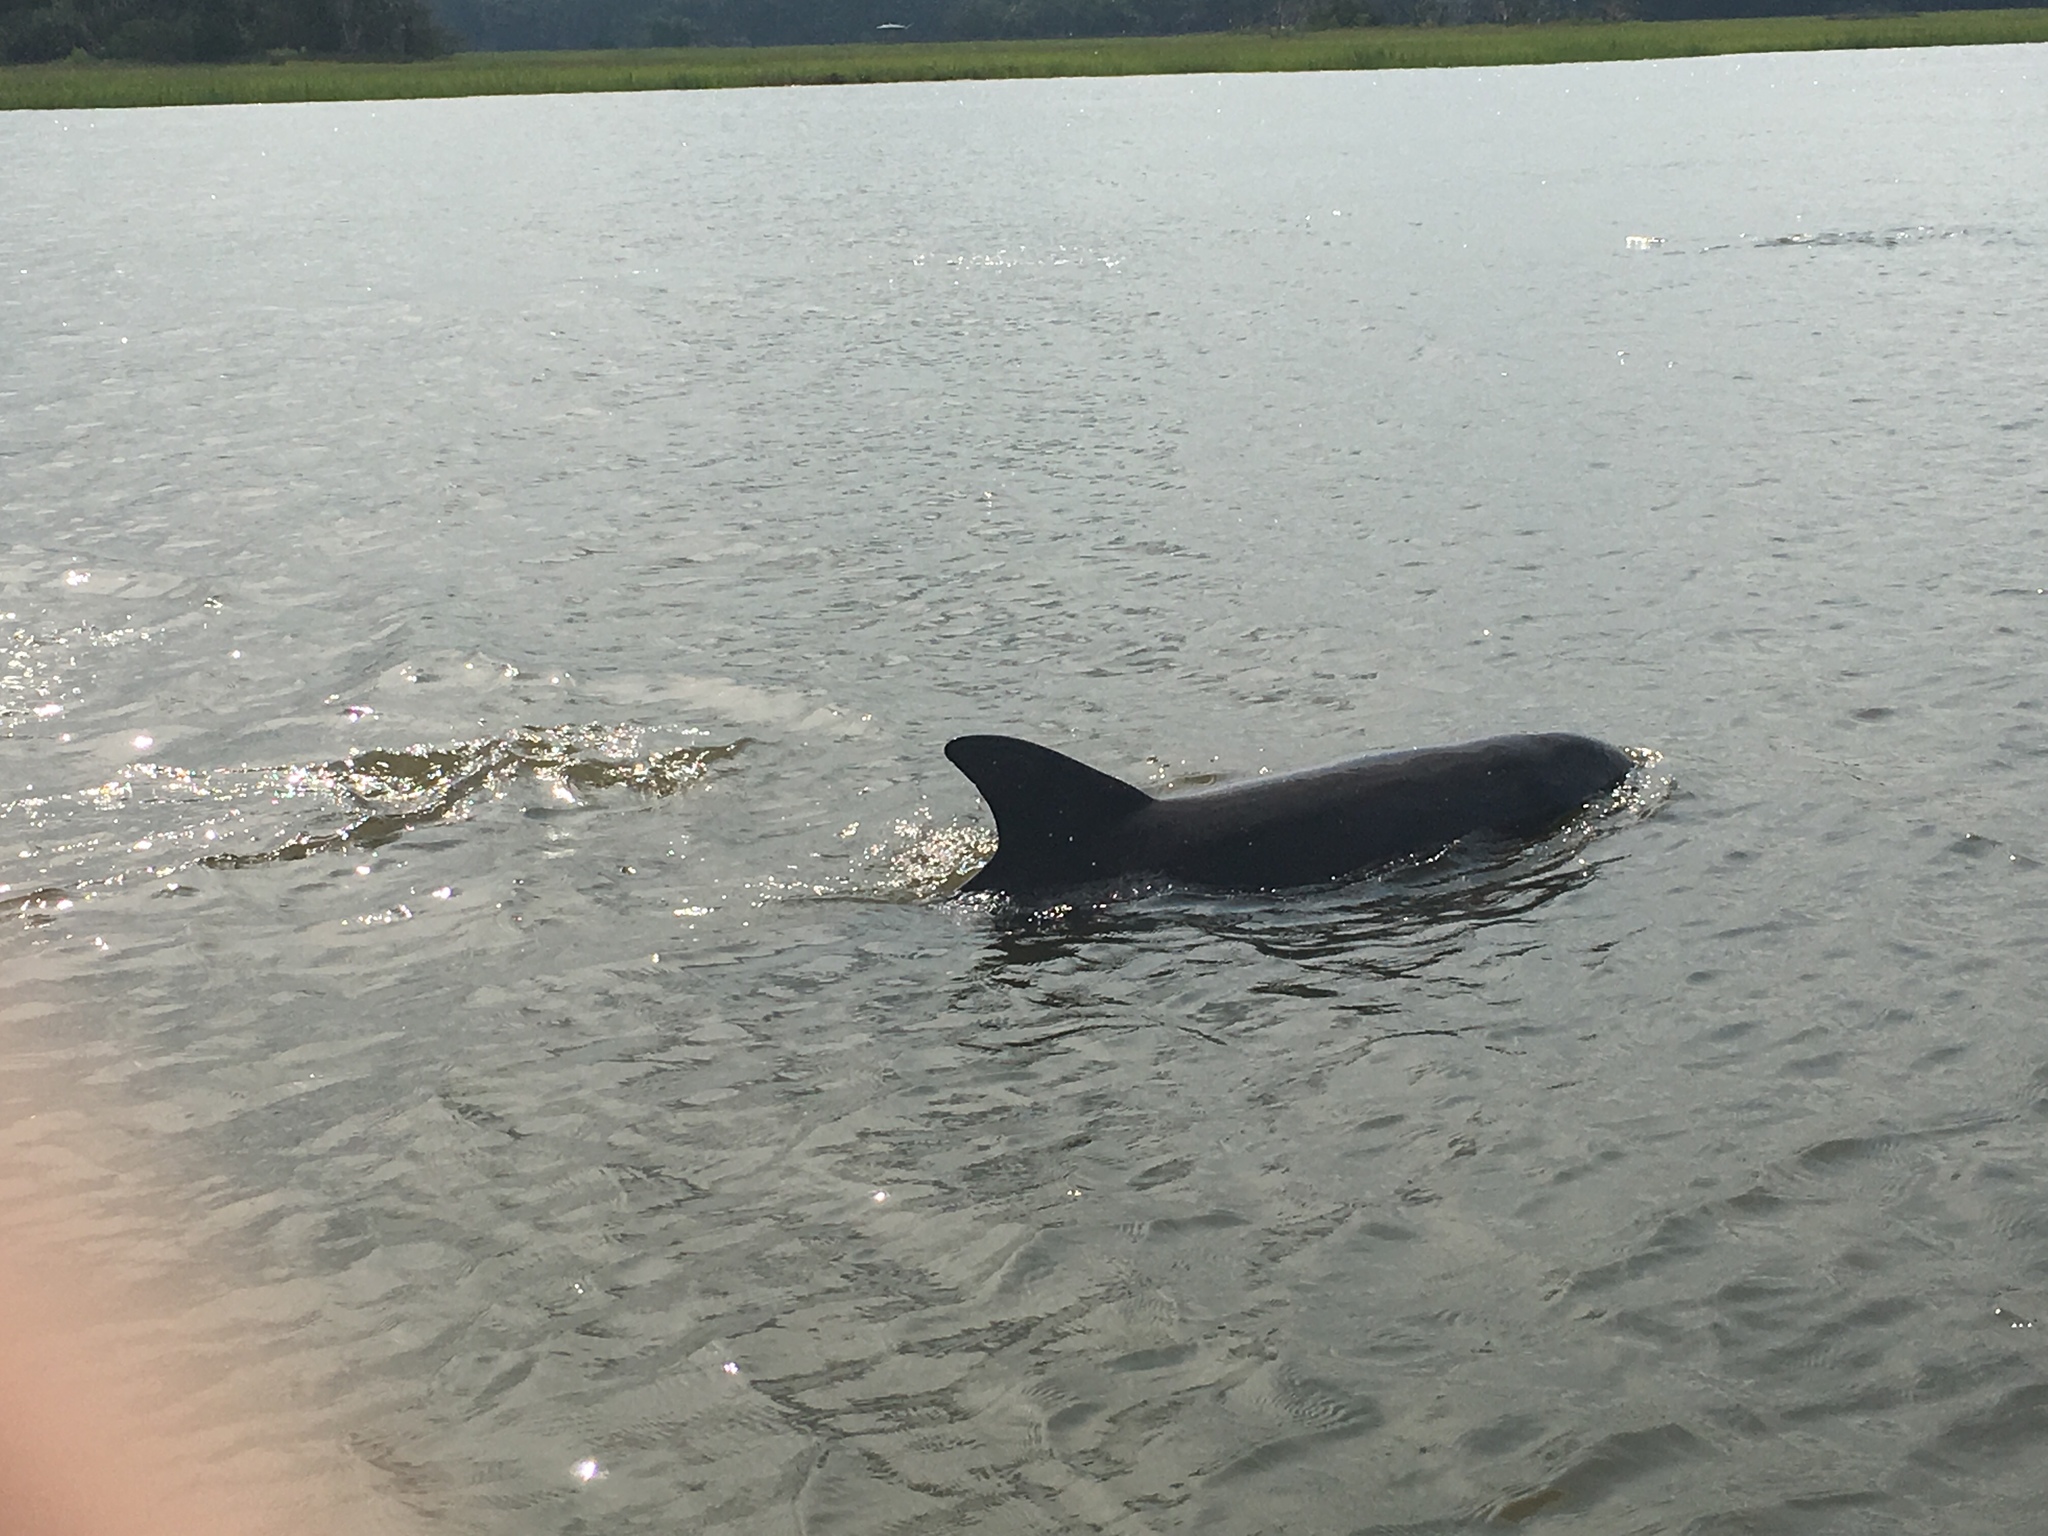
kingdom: Animalia
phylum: Chordata
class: Mammalia
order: Cetacea
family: Delphinidae
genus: Tursiops
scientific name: Tursiops truncatus
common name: Bottlenose dolphin
